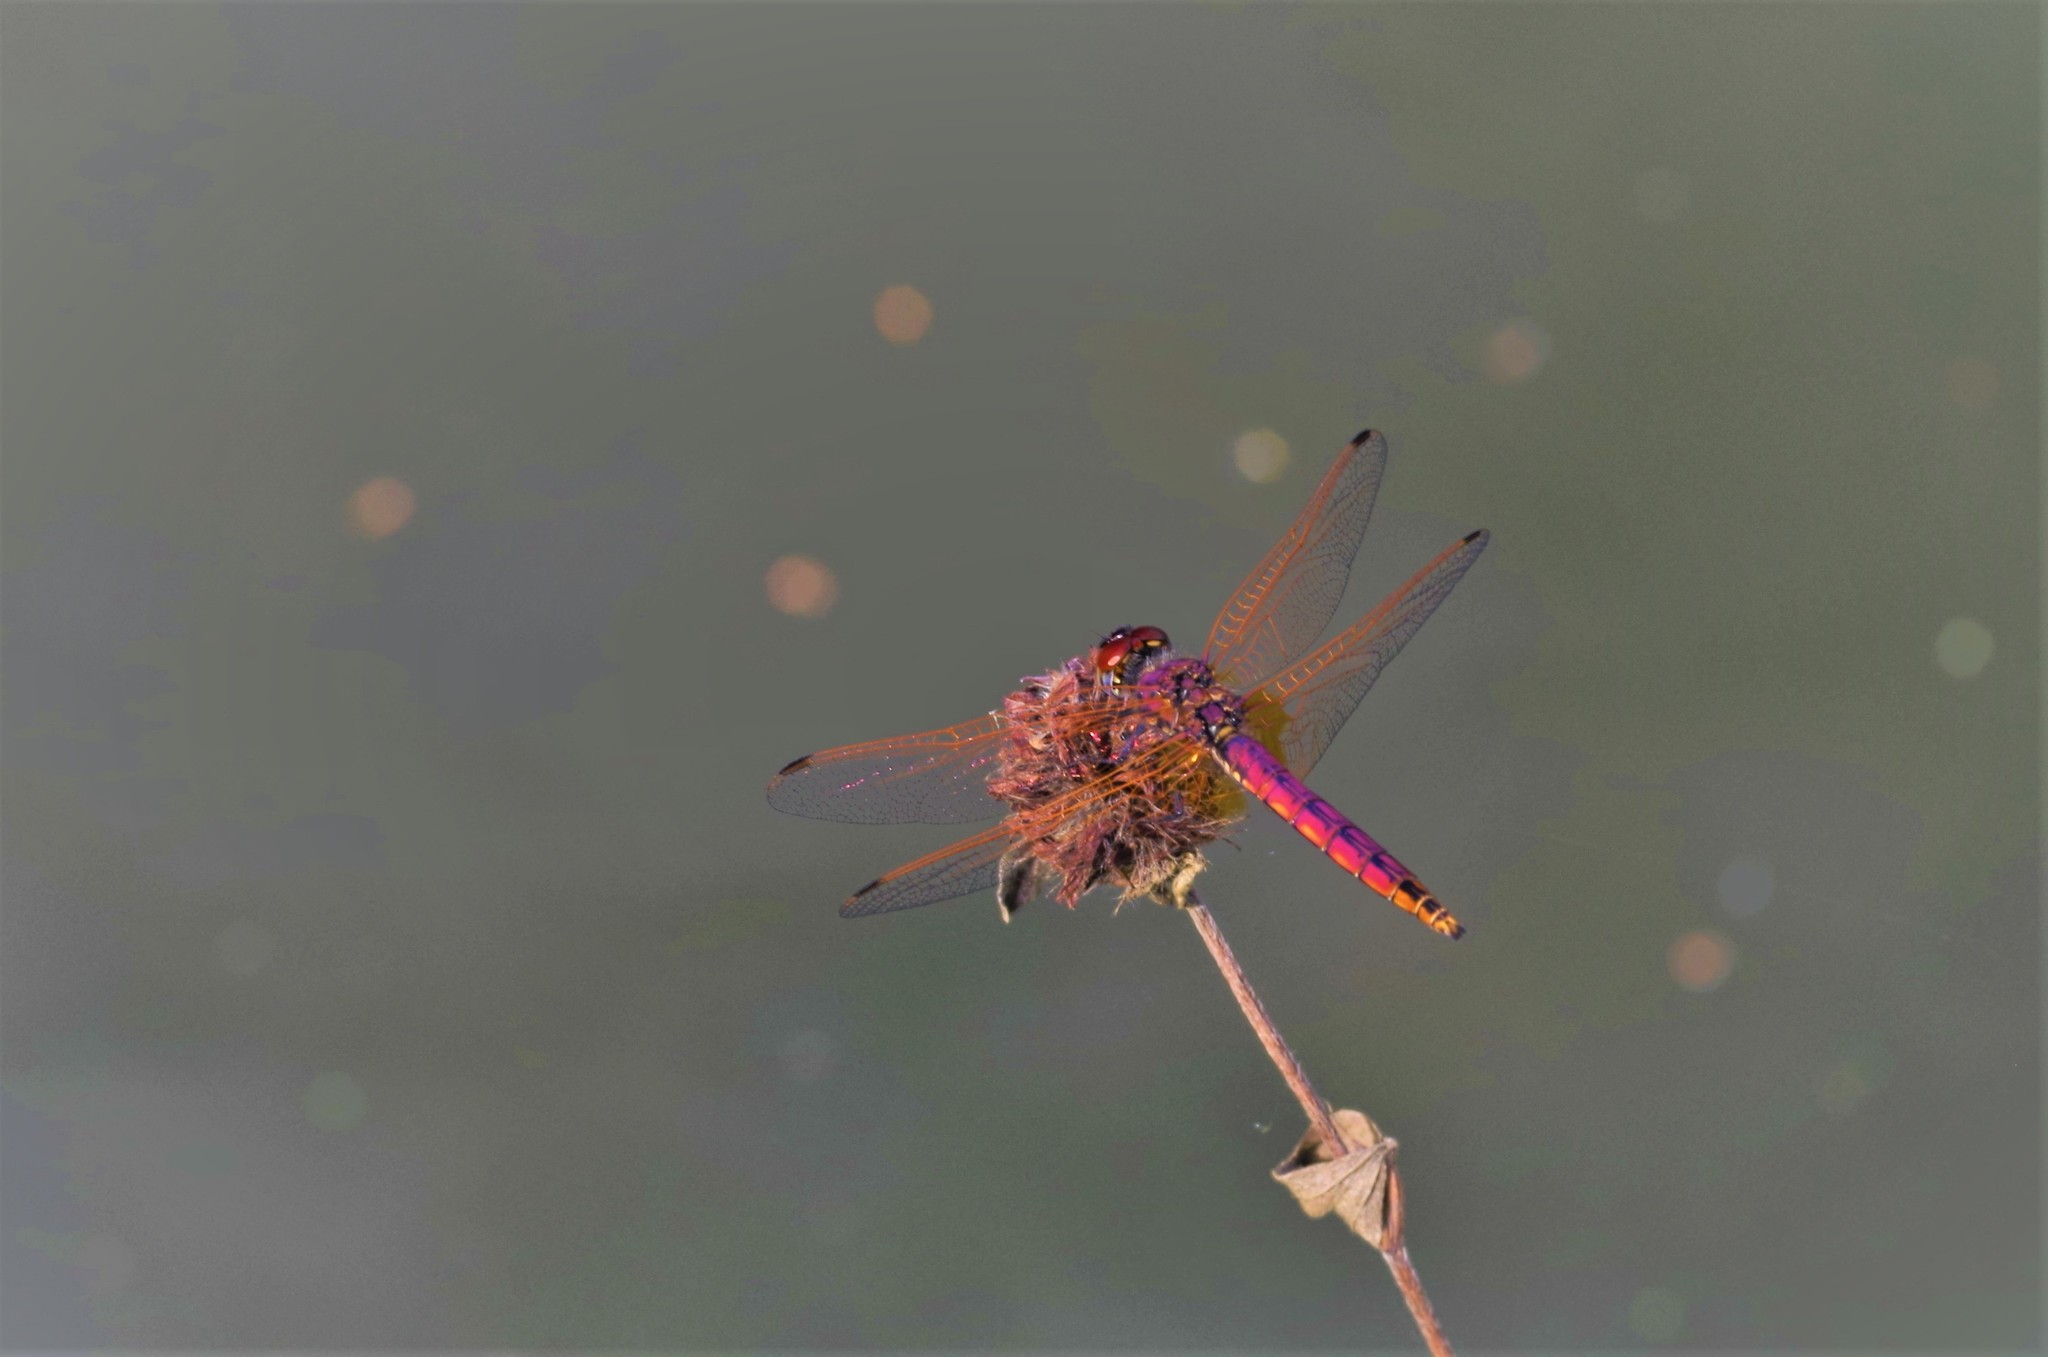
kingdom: Animalia
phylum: Arthropoda
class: Insecta
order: Odonata
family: Libellulidae
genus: Trithemis
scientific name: Trithemis annulata
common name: Violet dropwing
